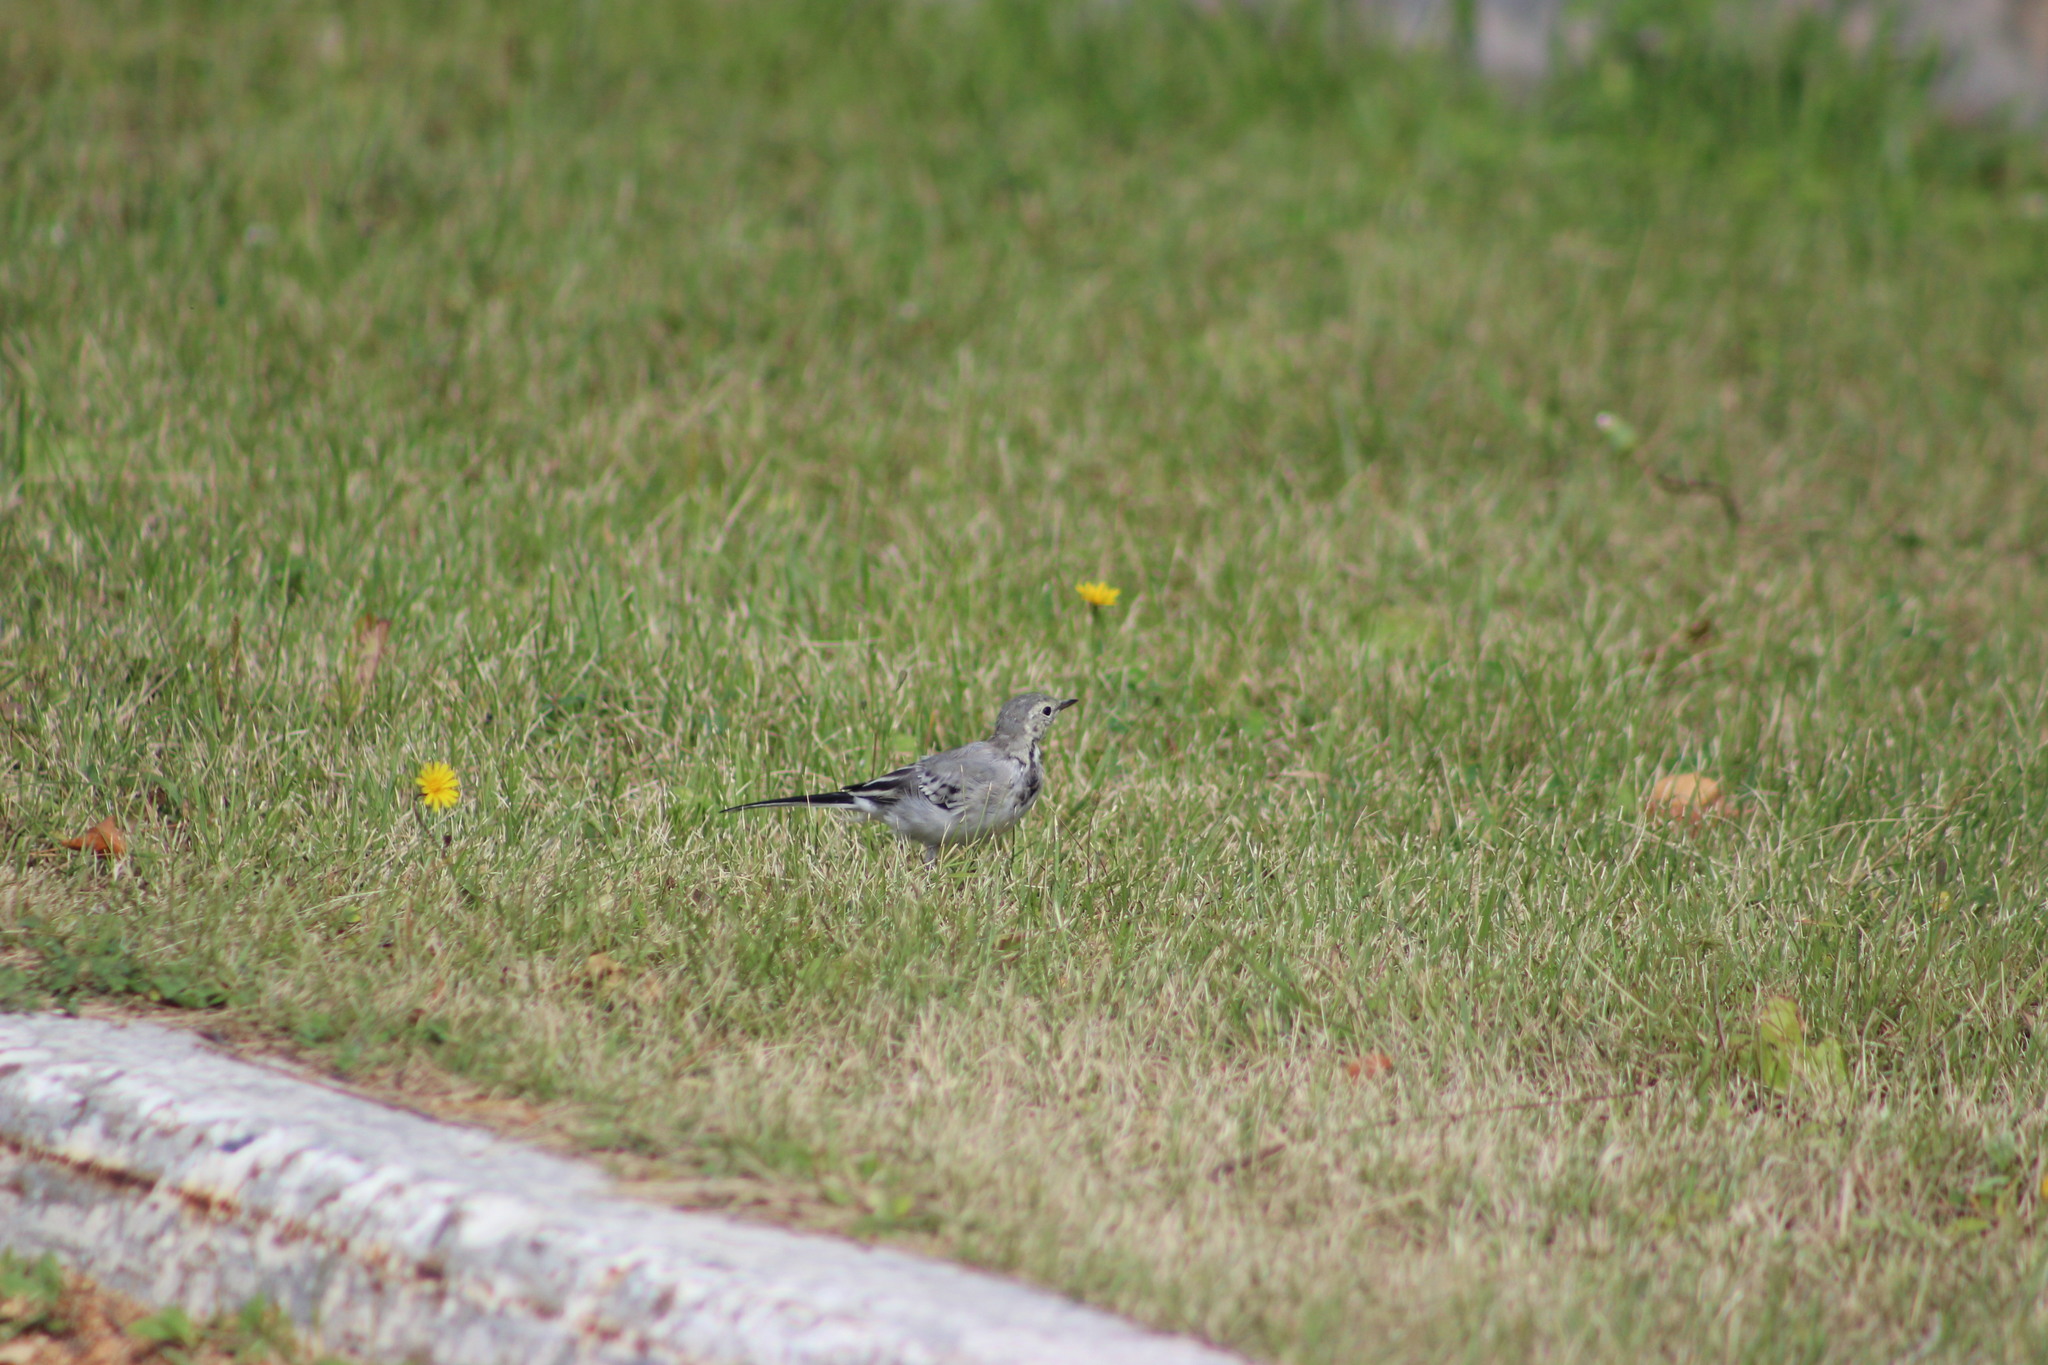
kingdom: Animalia
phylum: Chordata
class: Aves
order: Passeriformes
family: Motacillidae
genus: Motacilla
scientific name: Motacilla alba
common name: White wagtail
